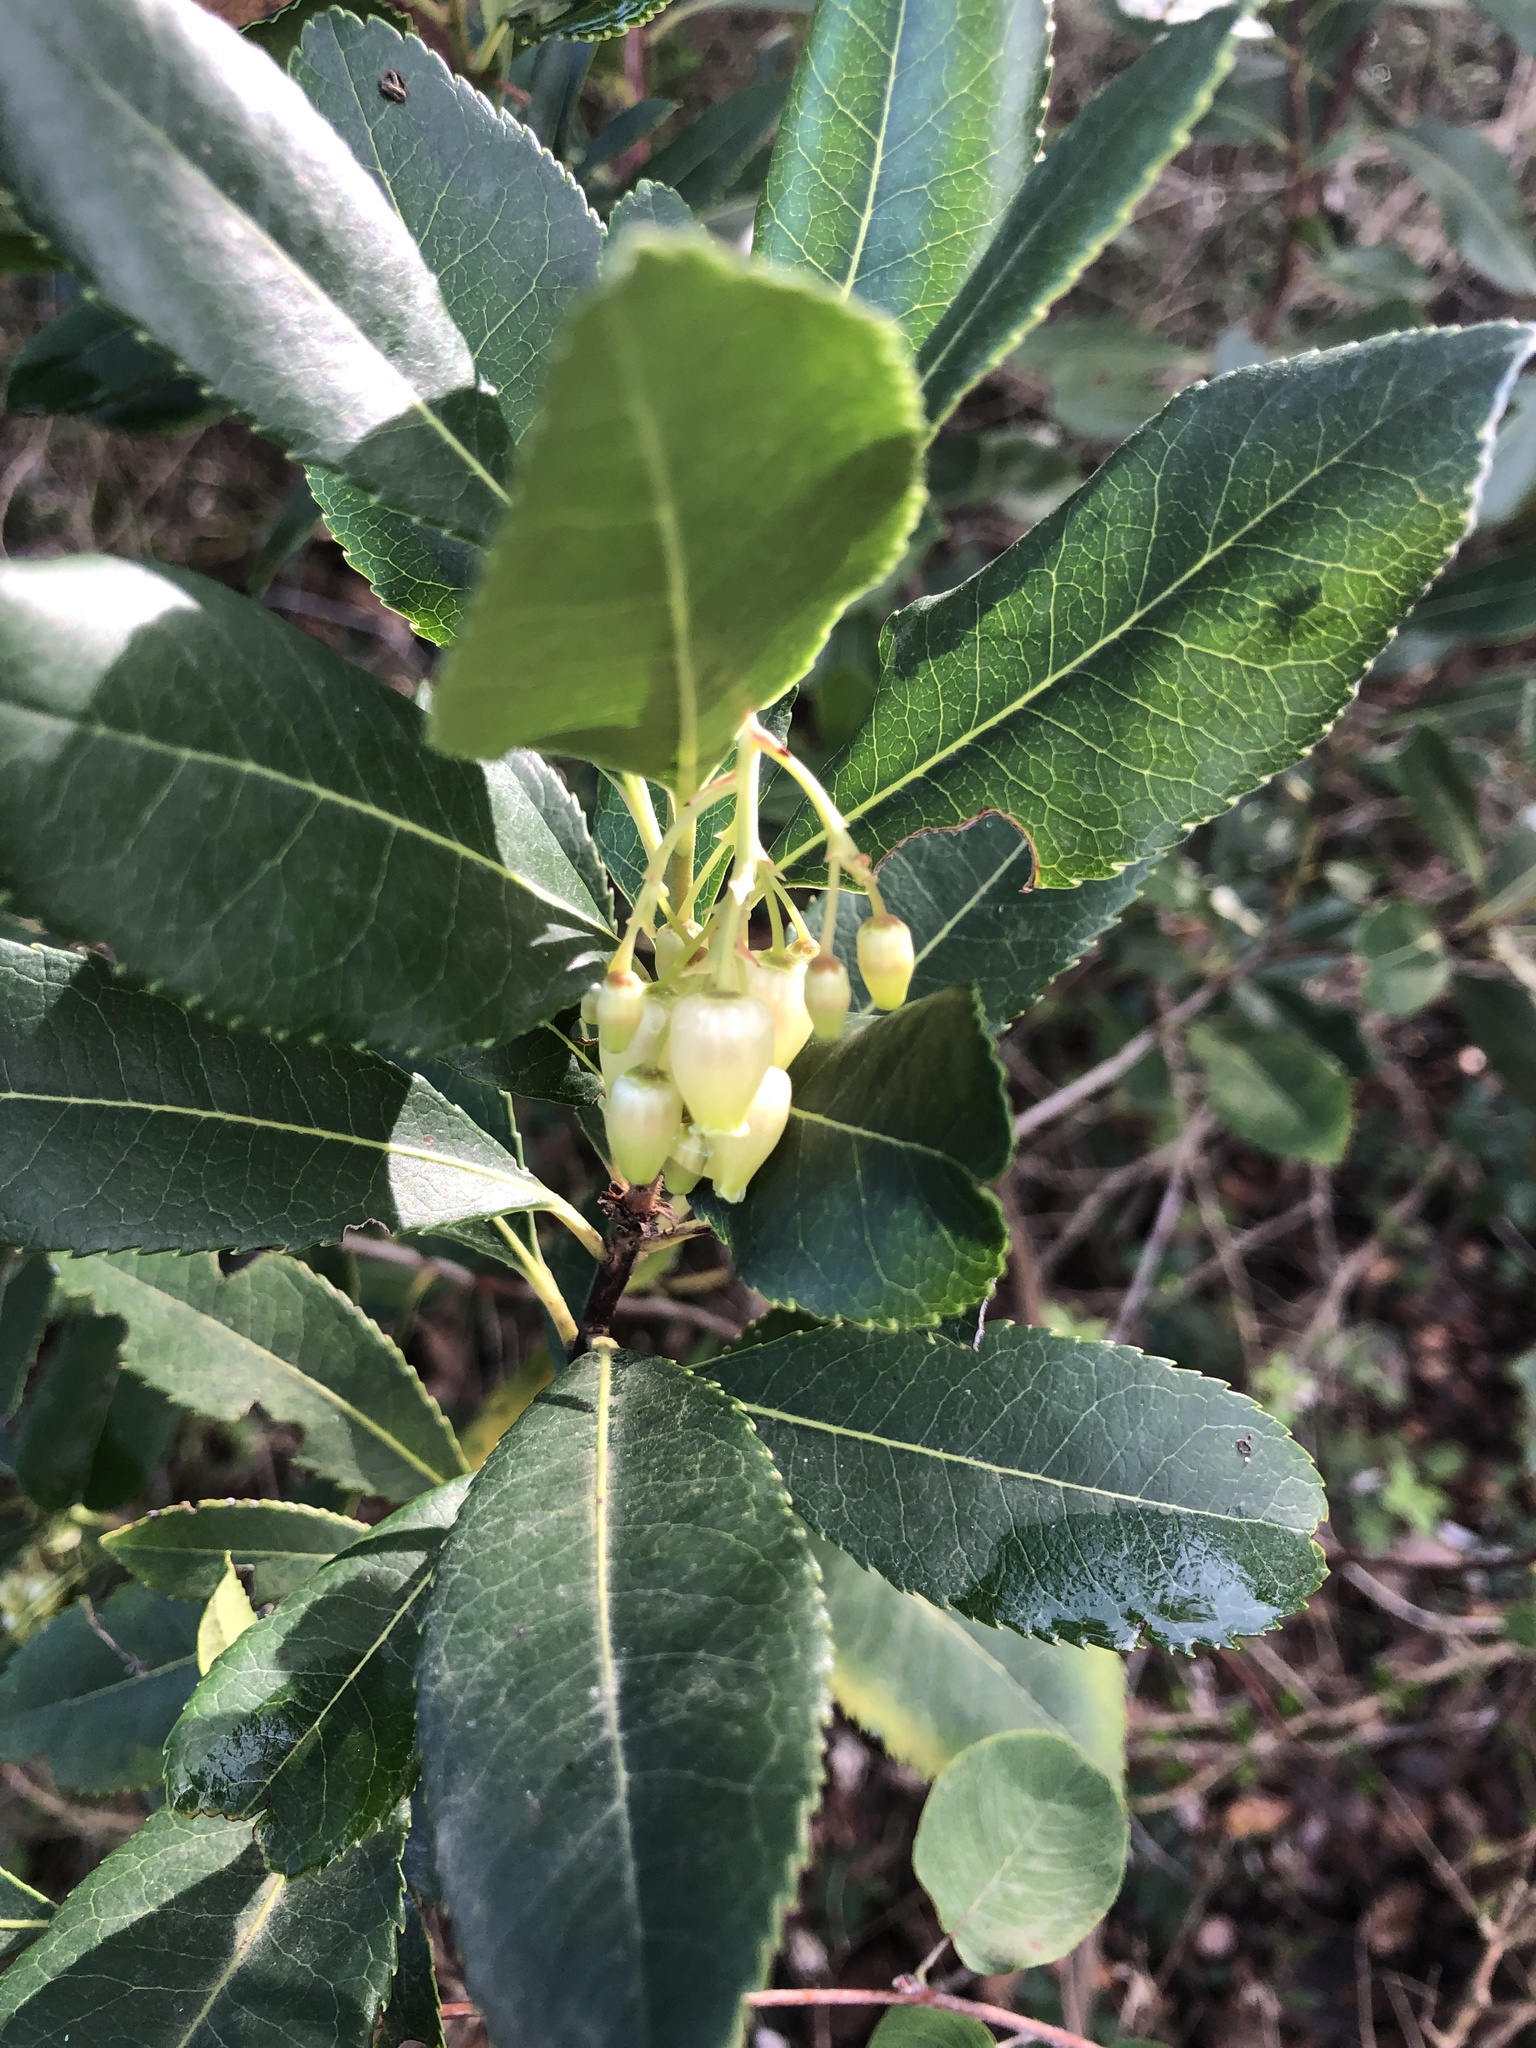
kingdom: Plantae
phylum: Tracheophyta
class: Magnoliopsida
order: Ericales
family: Ericaceae
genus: Arbutus
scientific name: Arbutus unedo
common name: Strawberry-tree
